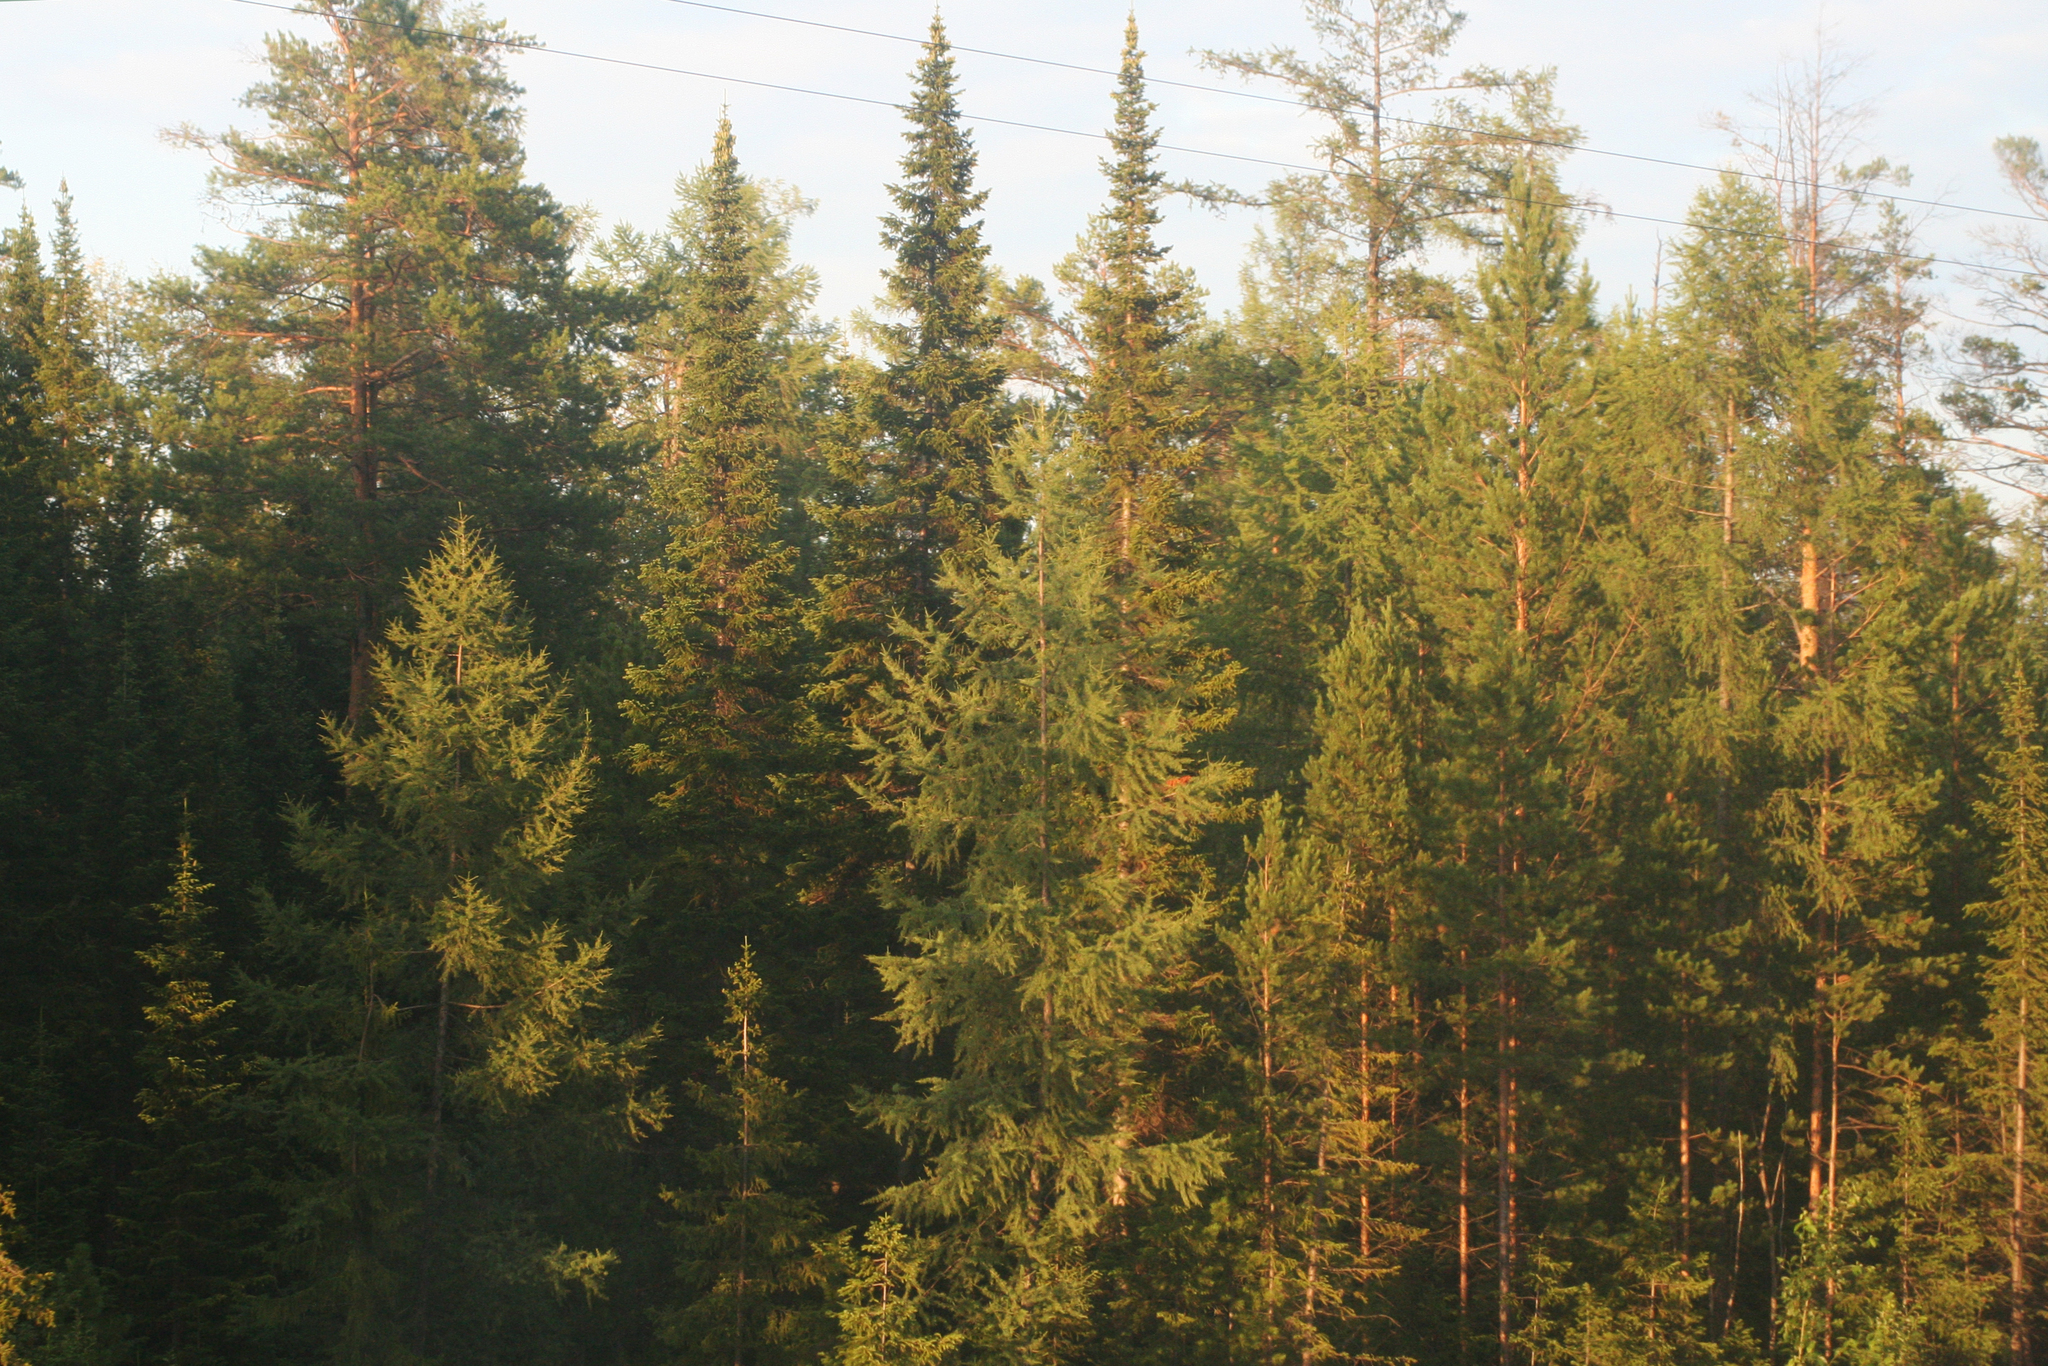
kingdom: Plantae
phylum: Tracheophyta
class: Pinopsida
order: Pinales
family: Pinaceae
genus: Abies
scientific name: Abies sibirica
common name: Siberian fir
